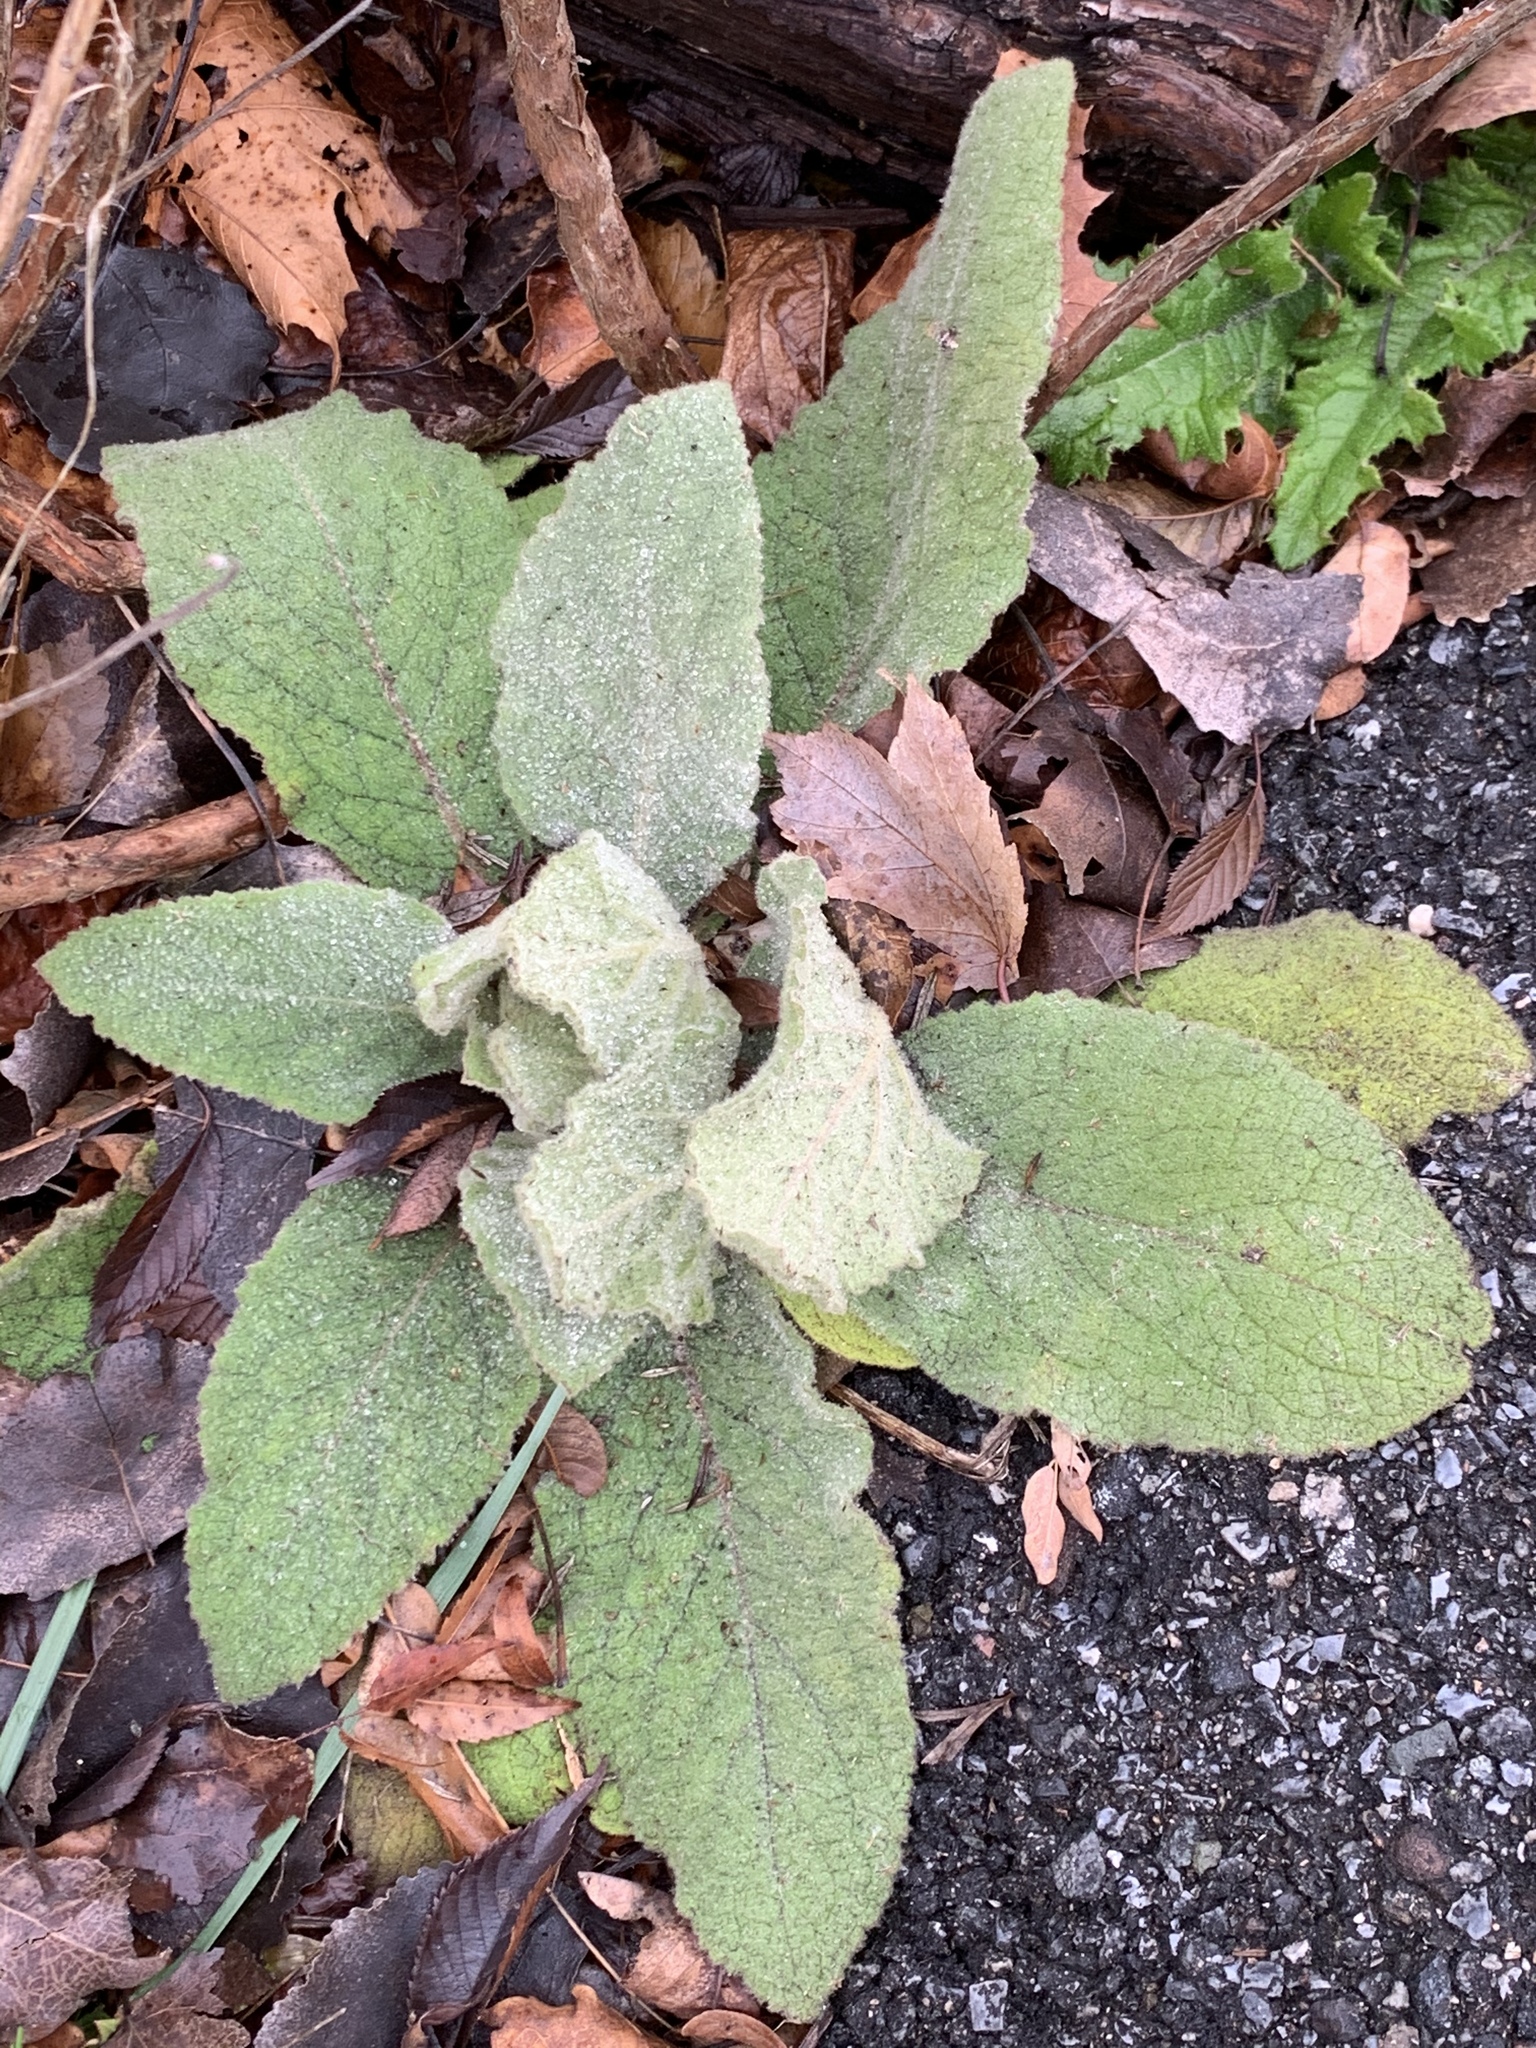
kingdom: Plantae
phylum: Tracheophyta
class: Magnoliopsida
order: Lamiales
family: Scrophulariaceae
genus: Verbascum
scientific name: Verbascum thapsus
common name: Common mullein
